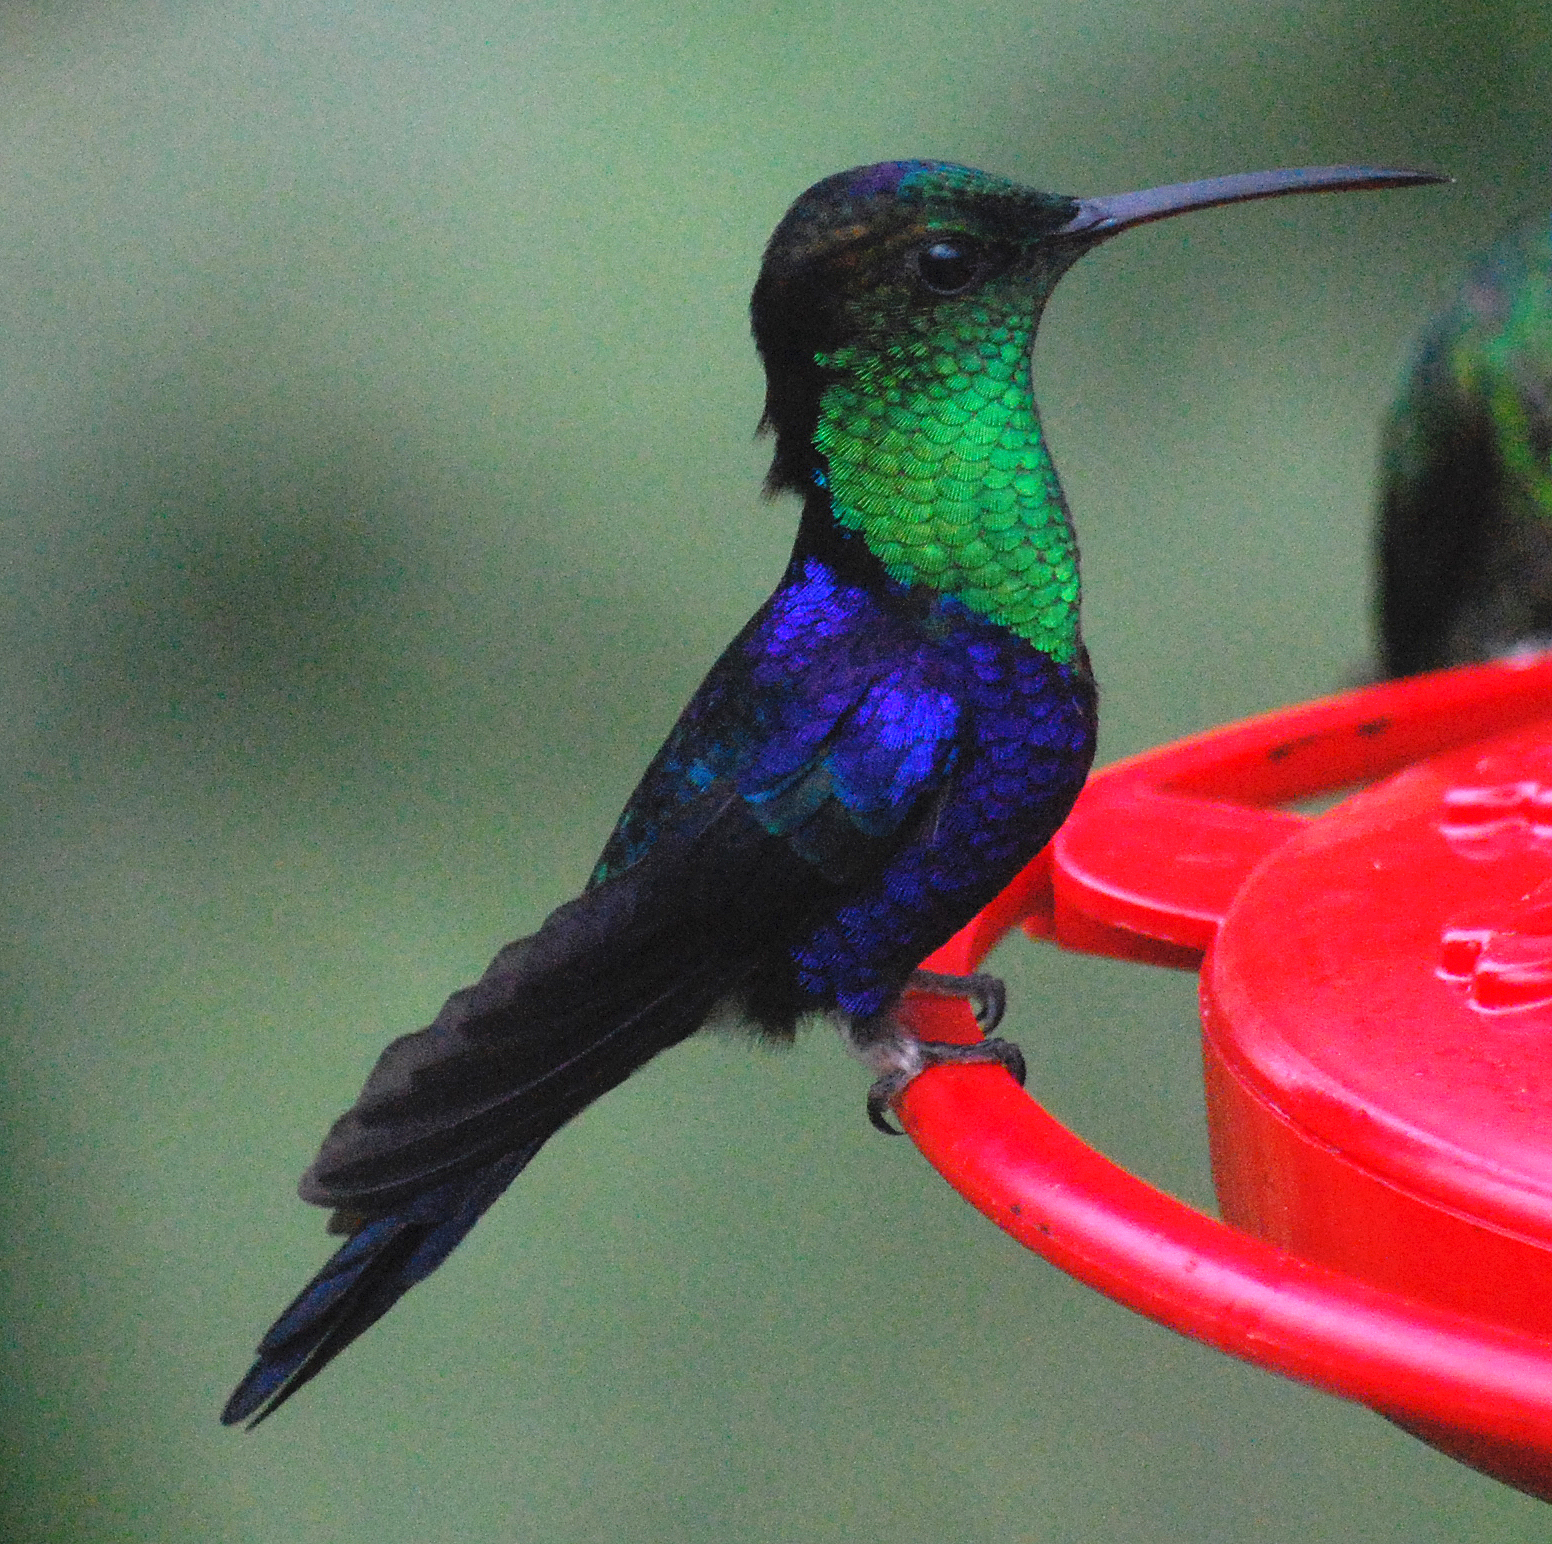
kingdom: Animalia
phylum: Chordata
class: Aves
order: Apodiformes
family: Trochilidae
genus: Thalurania
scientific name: Thalurania colombica
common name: Crowned woodnymph
